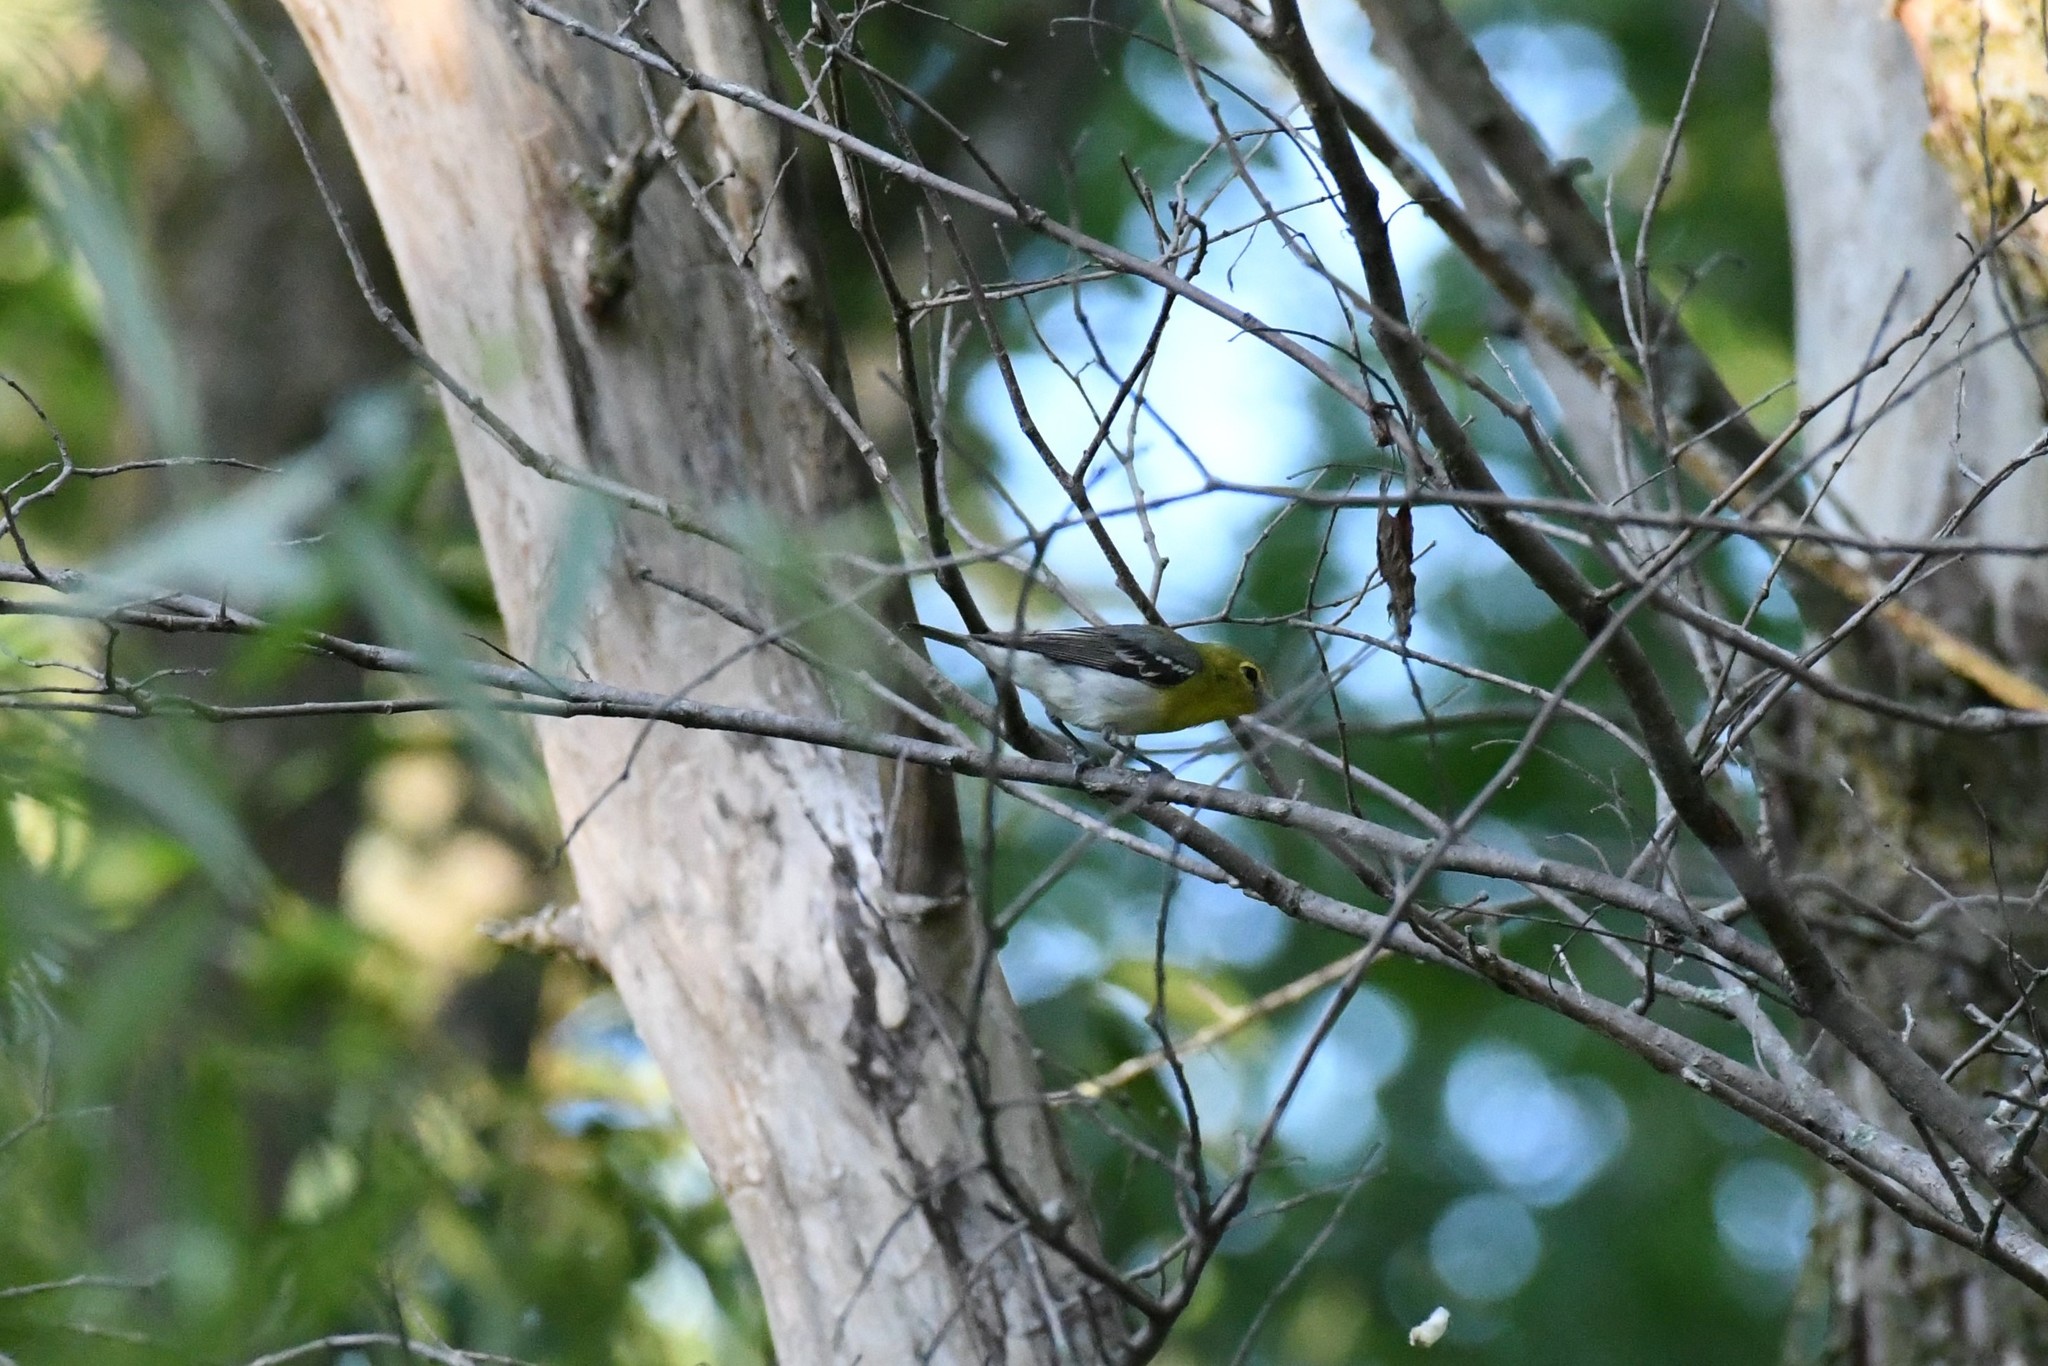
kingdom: Animalia
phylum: Chordata
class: Aves
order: Passeriformes
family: Vireonidae
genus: Vireo
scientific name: Vireo flavifrons
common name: Yellow-throated vireo
